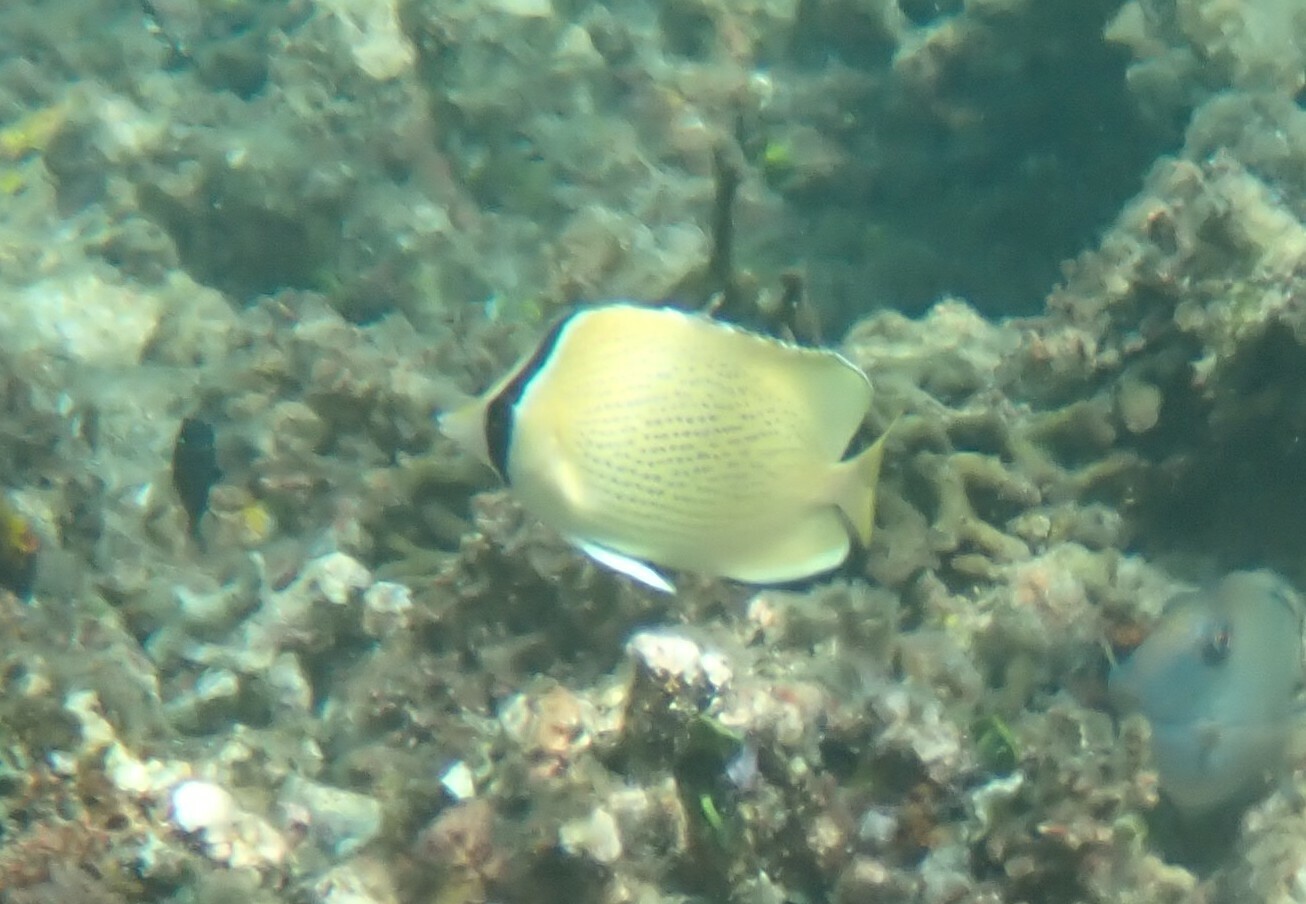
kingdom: Animalia
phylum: Chordata
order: Perciformes
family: Chaetodontidae
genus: Chaetodon
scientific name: Chaetodon citrinellus
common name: Speckled butterflyfish
